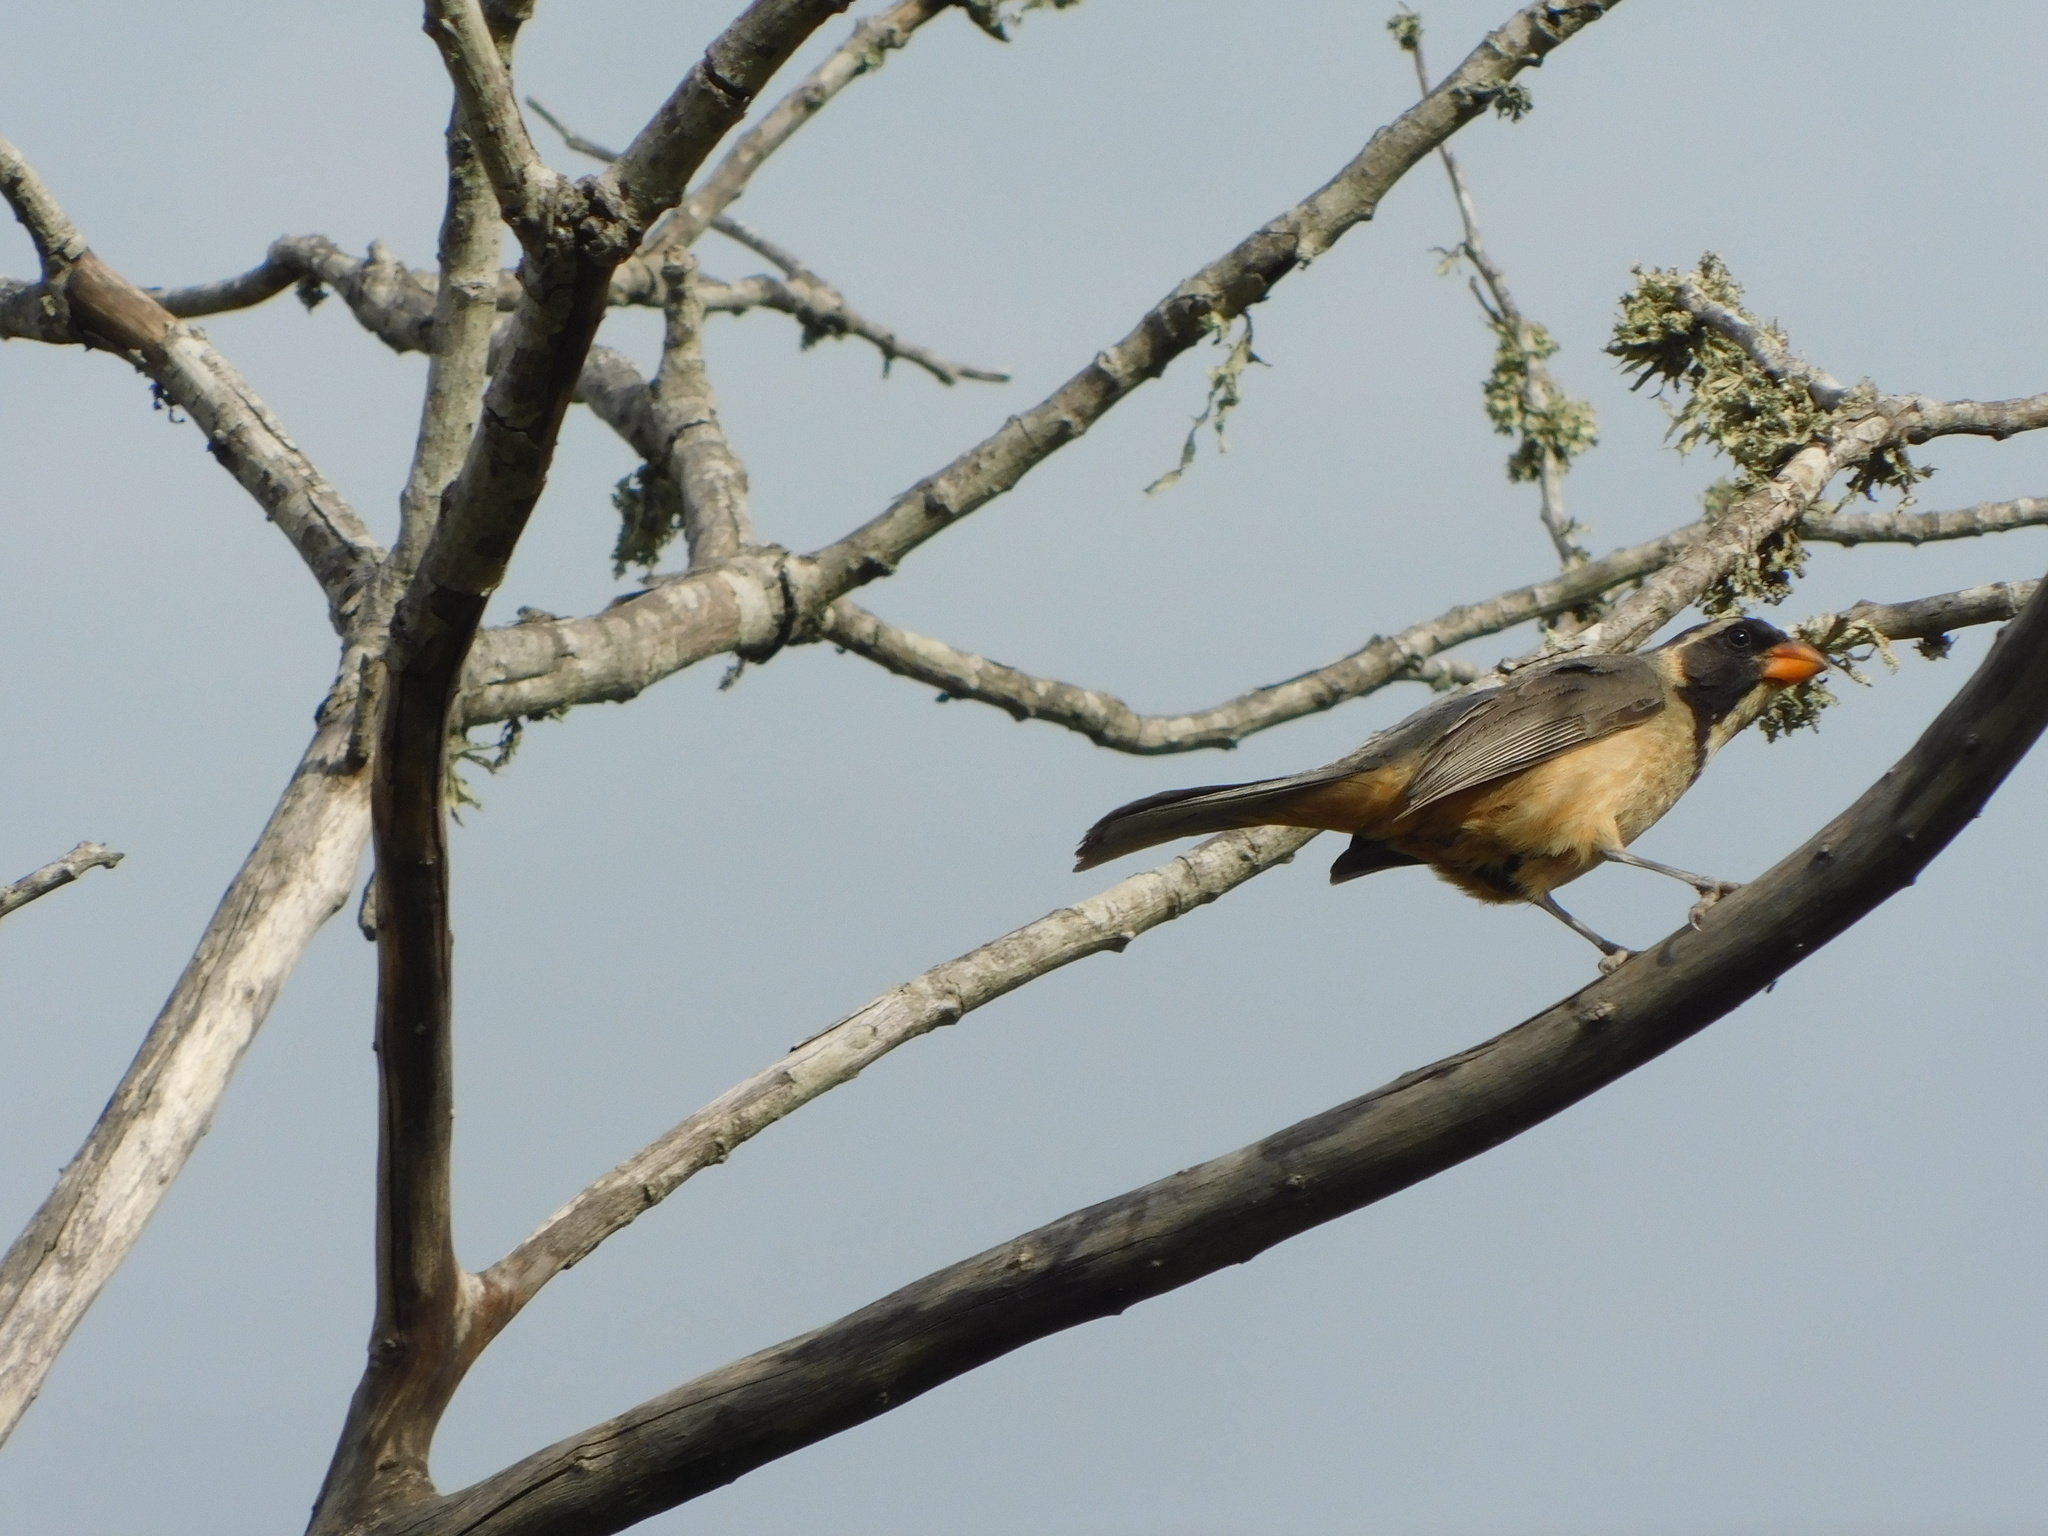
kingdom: Animalia
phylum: Chordata
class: Aves
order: Passeriformes
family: Thraupidae
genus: Saltator
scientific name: Saltator aurantiirostris
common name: Golden-billed saltator
